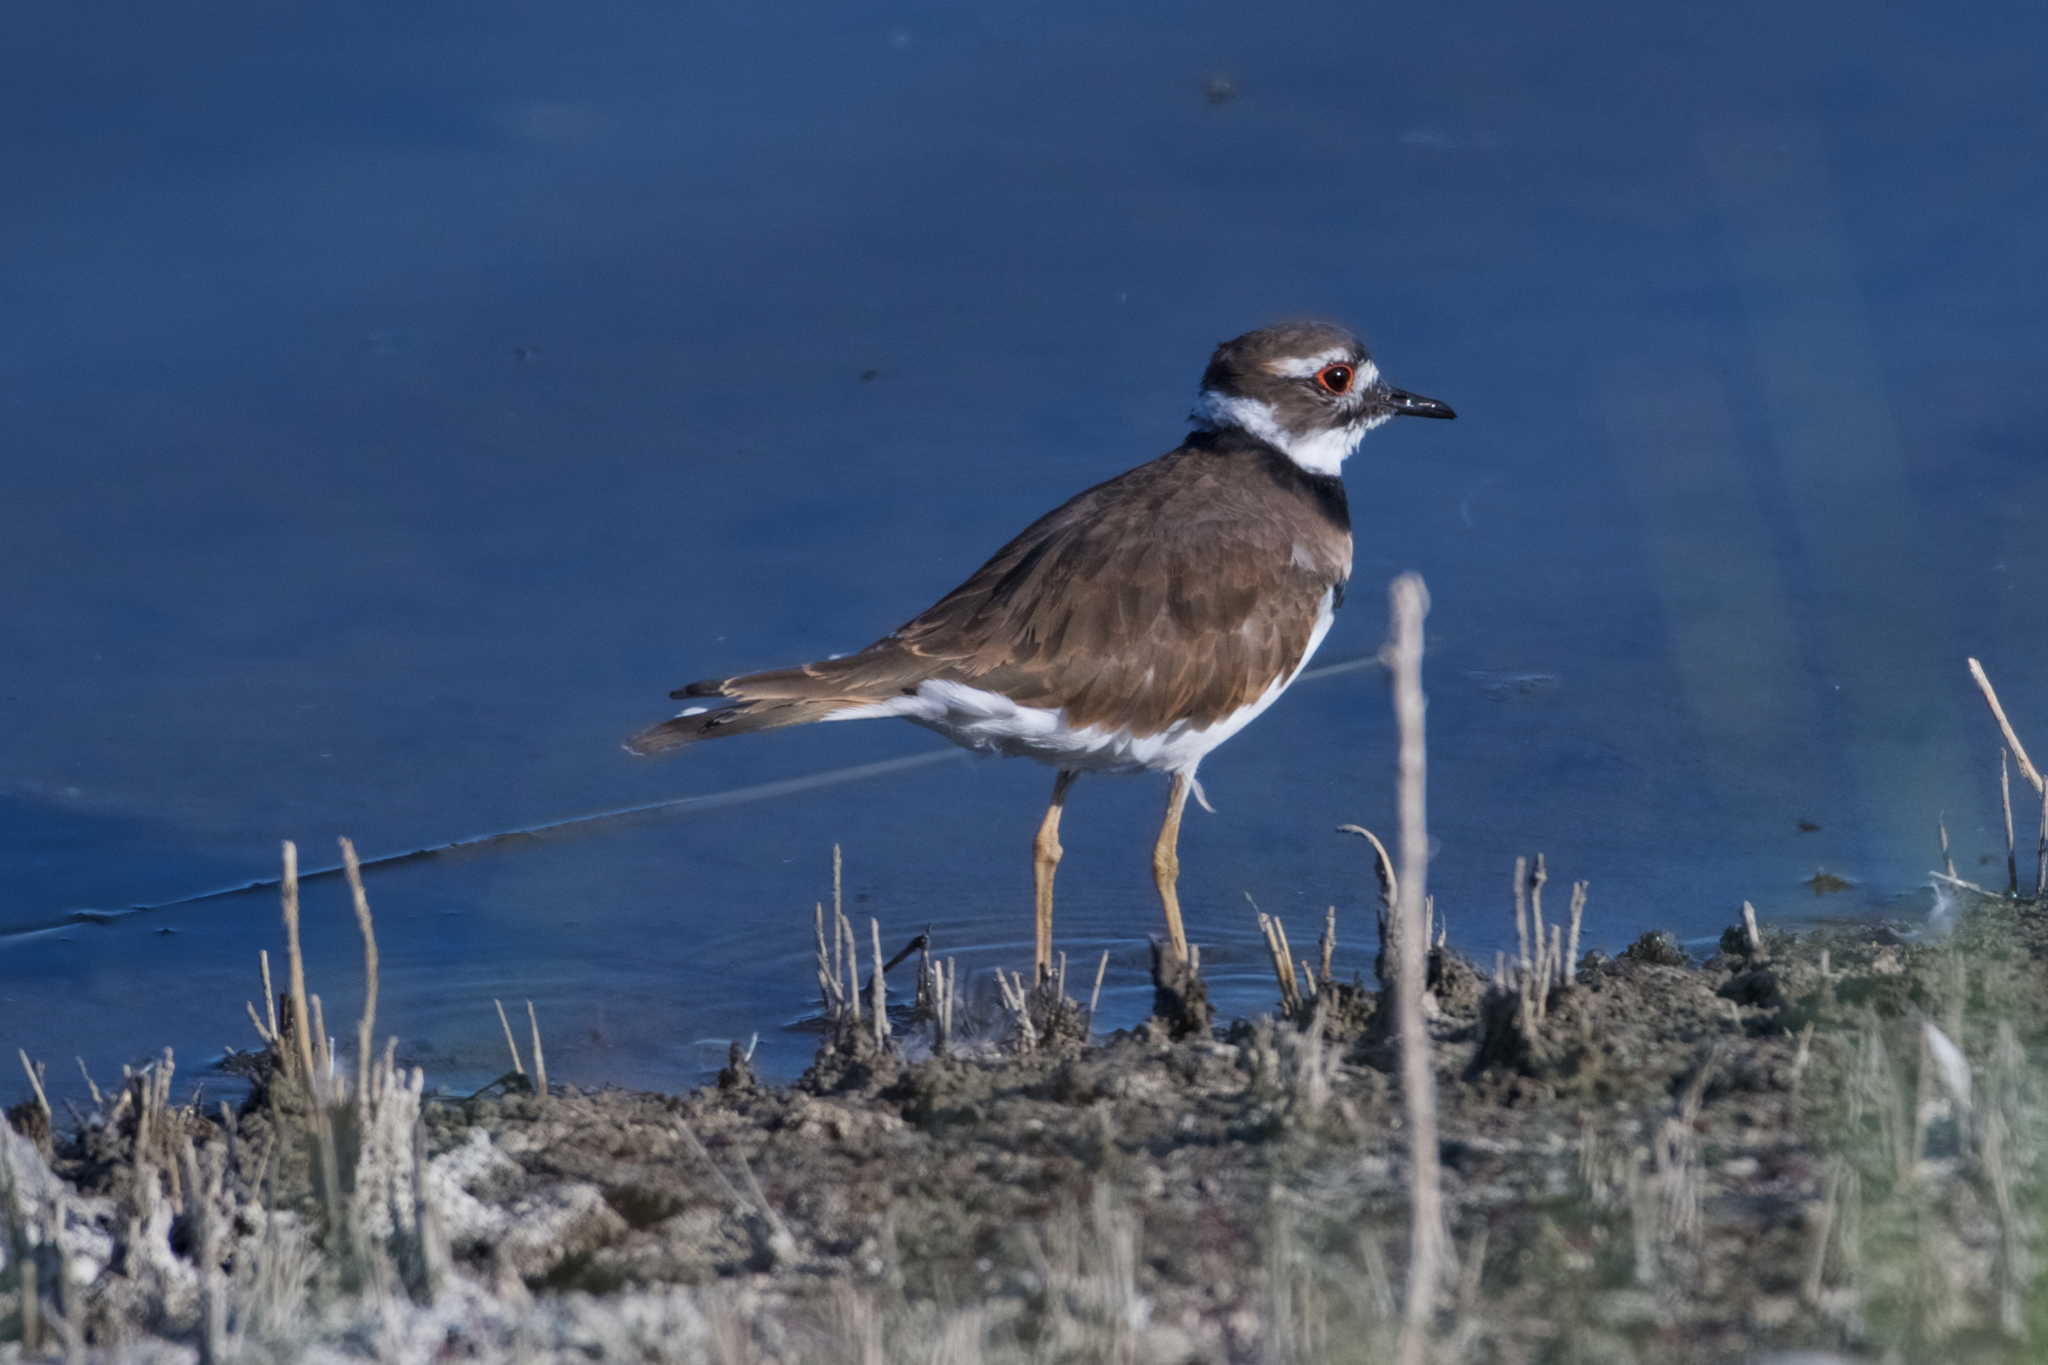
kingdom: Animalia
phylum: Chordata
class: Aves
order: Charadriiformes
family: Charadriidae
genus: Charadrius
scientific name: Charadrius vociferus
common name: Killdeer
